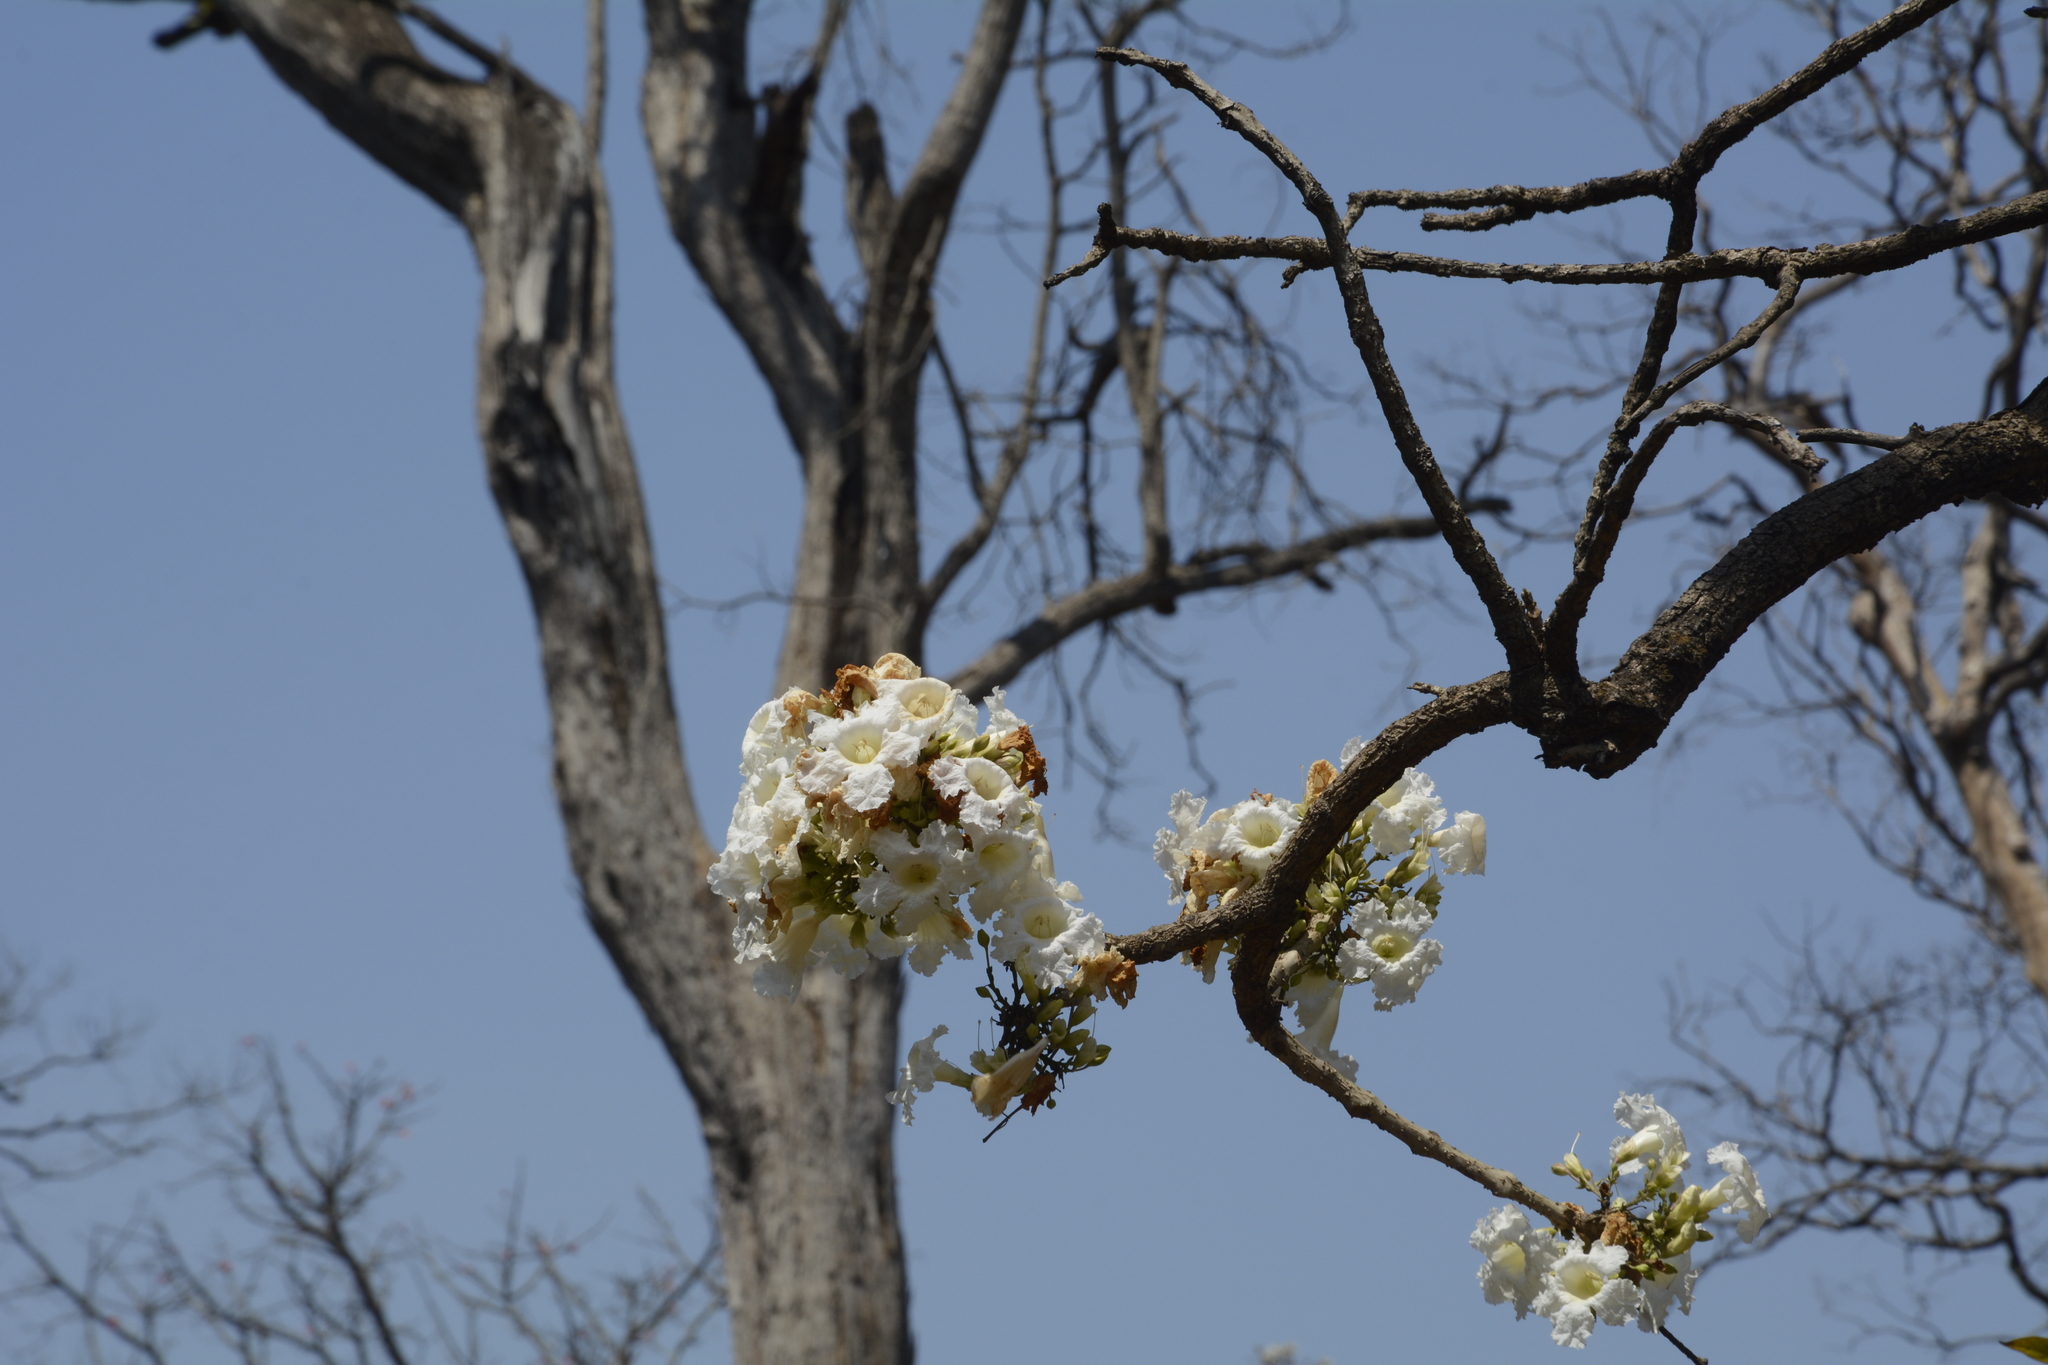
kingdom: Plantae
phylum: Tracheophyta
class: Magnoliopsida
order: Lamiales
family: Bignoniaceae
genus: Radermachera
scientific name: Radermachera xylocarpa
